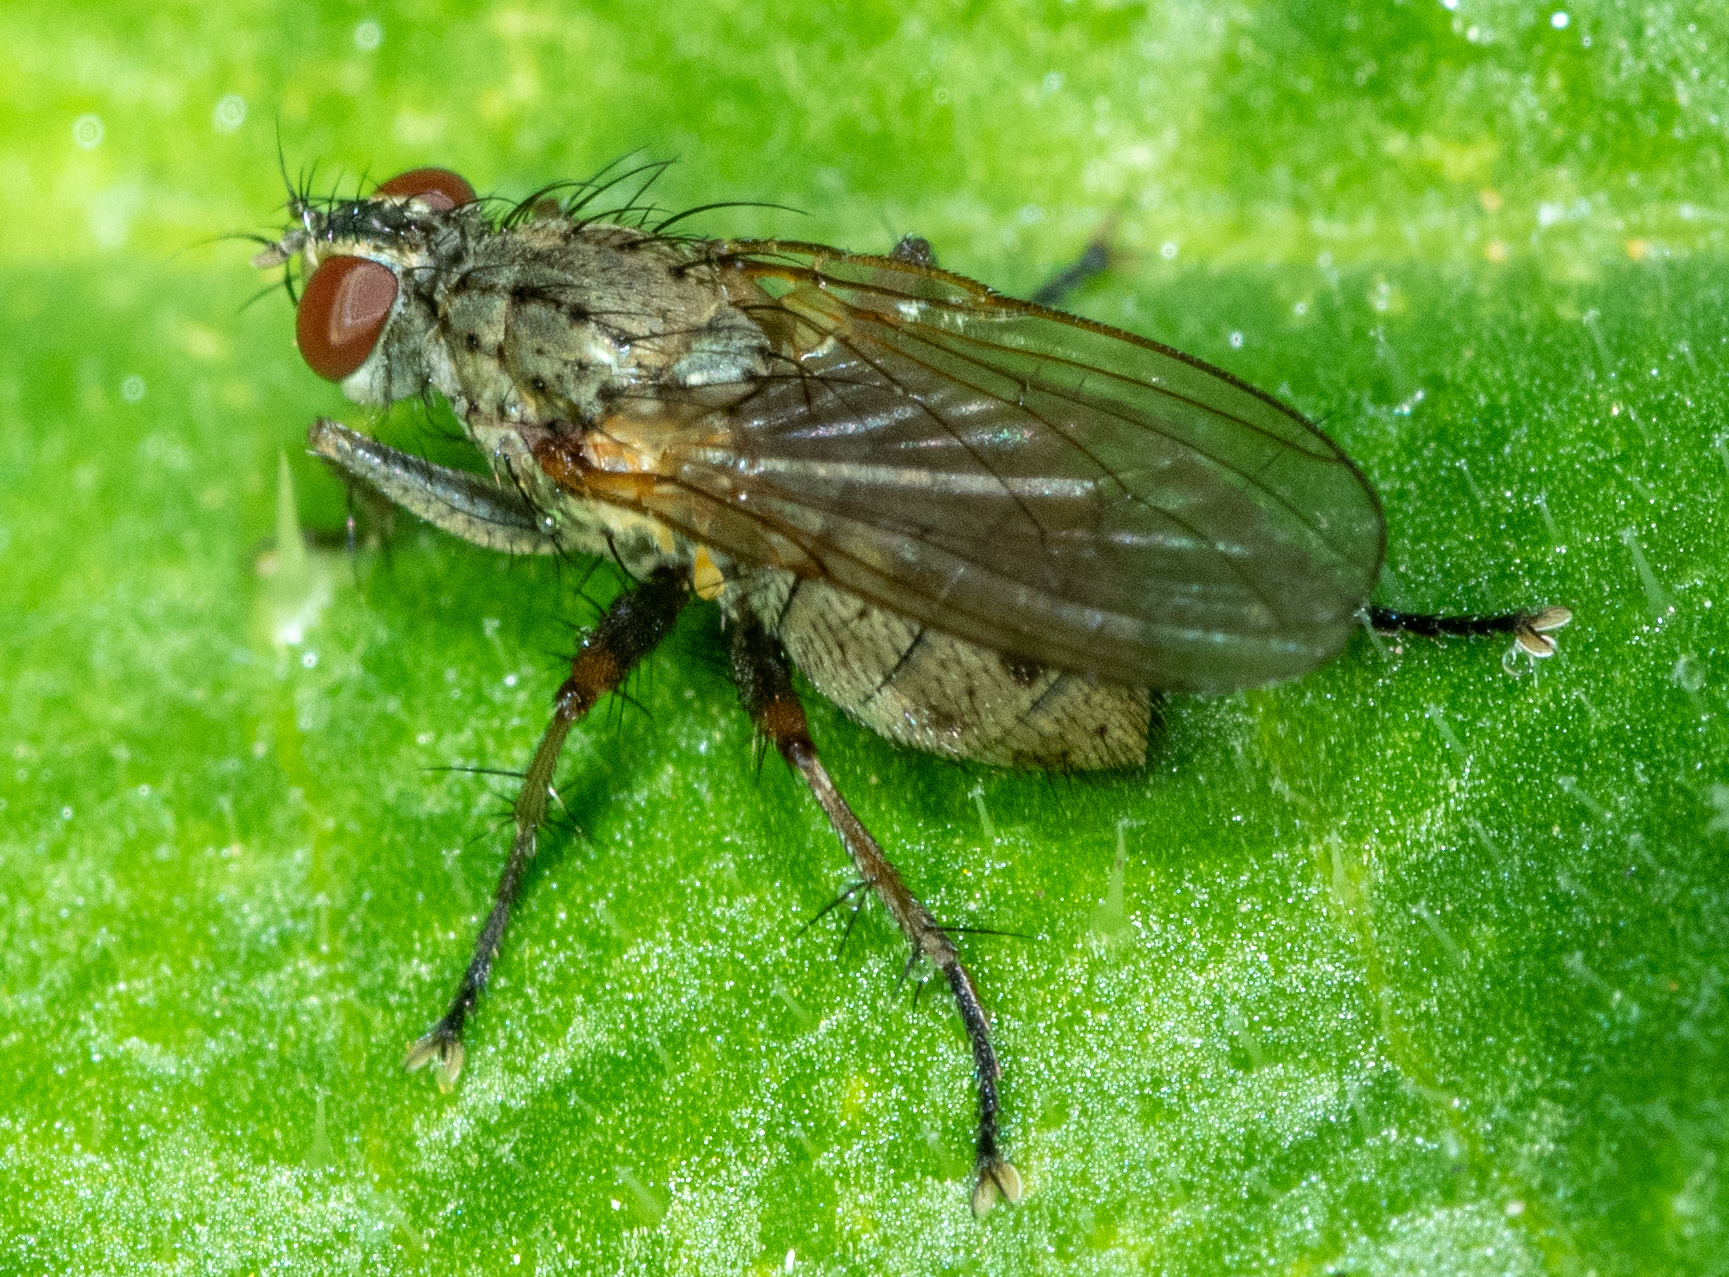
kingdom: Animalia
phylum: Arthropoda
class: Insecta
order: Diptera
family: Muscidae
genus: Coenosia
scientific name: Coenosia tigrina
